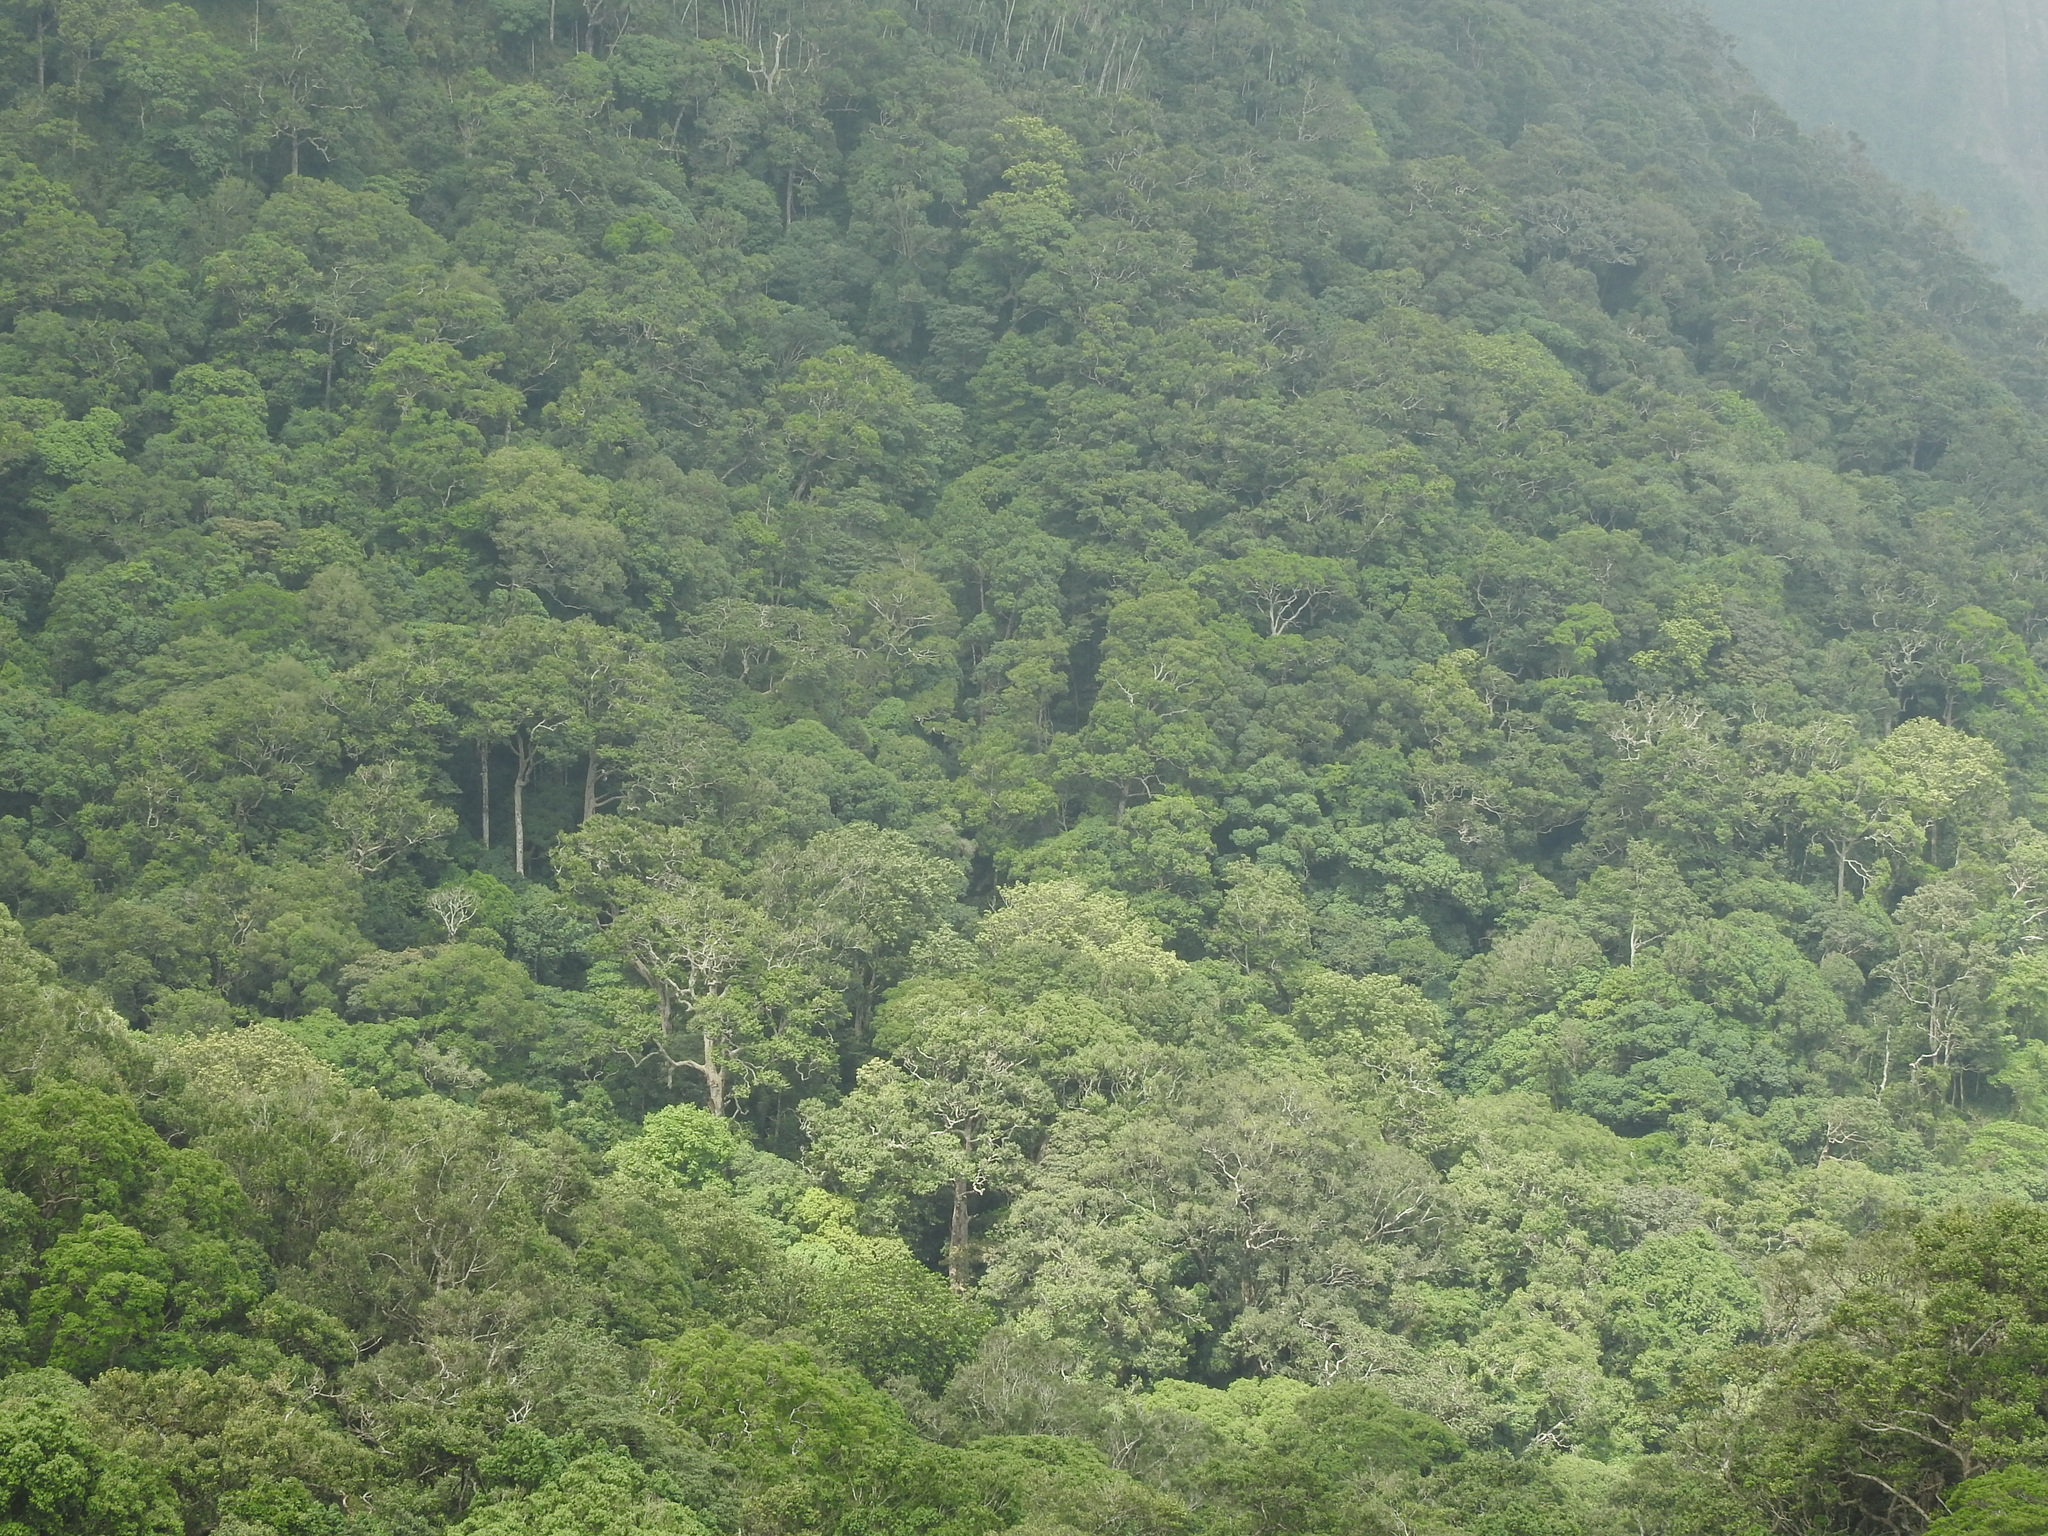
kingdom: Plantae
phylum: Tracheophyta
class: Liliopsida
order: Arecales
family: Arecaceae
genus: Bentinckia
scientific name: Bentinckia condapanna
